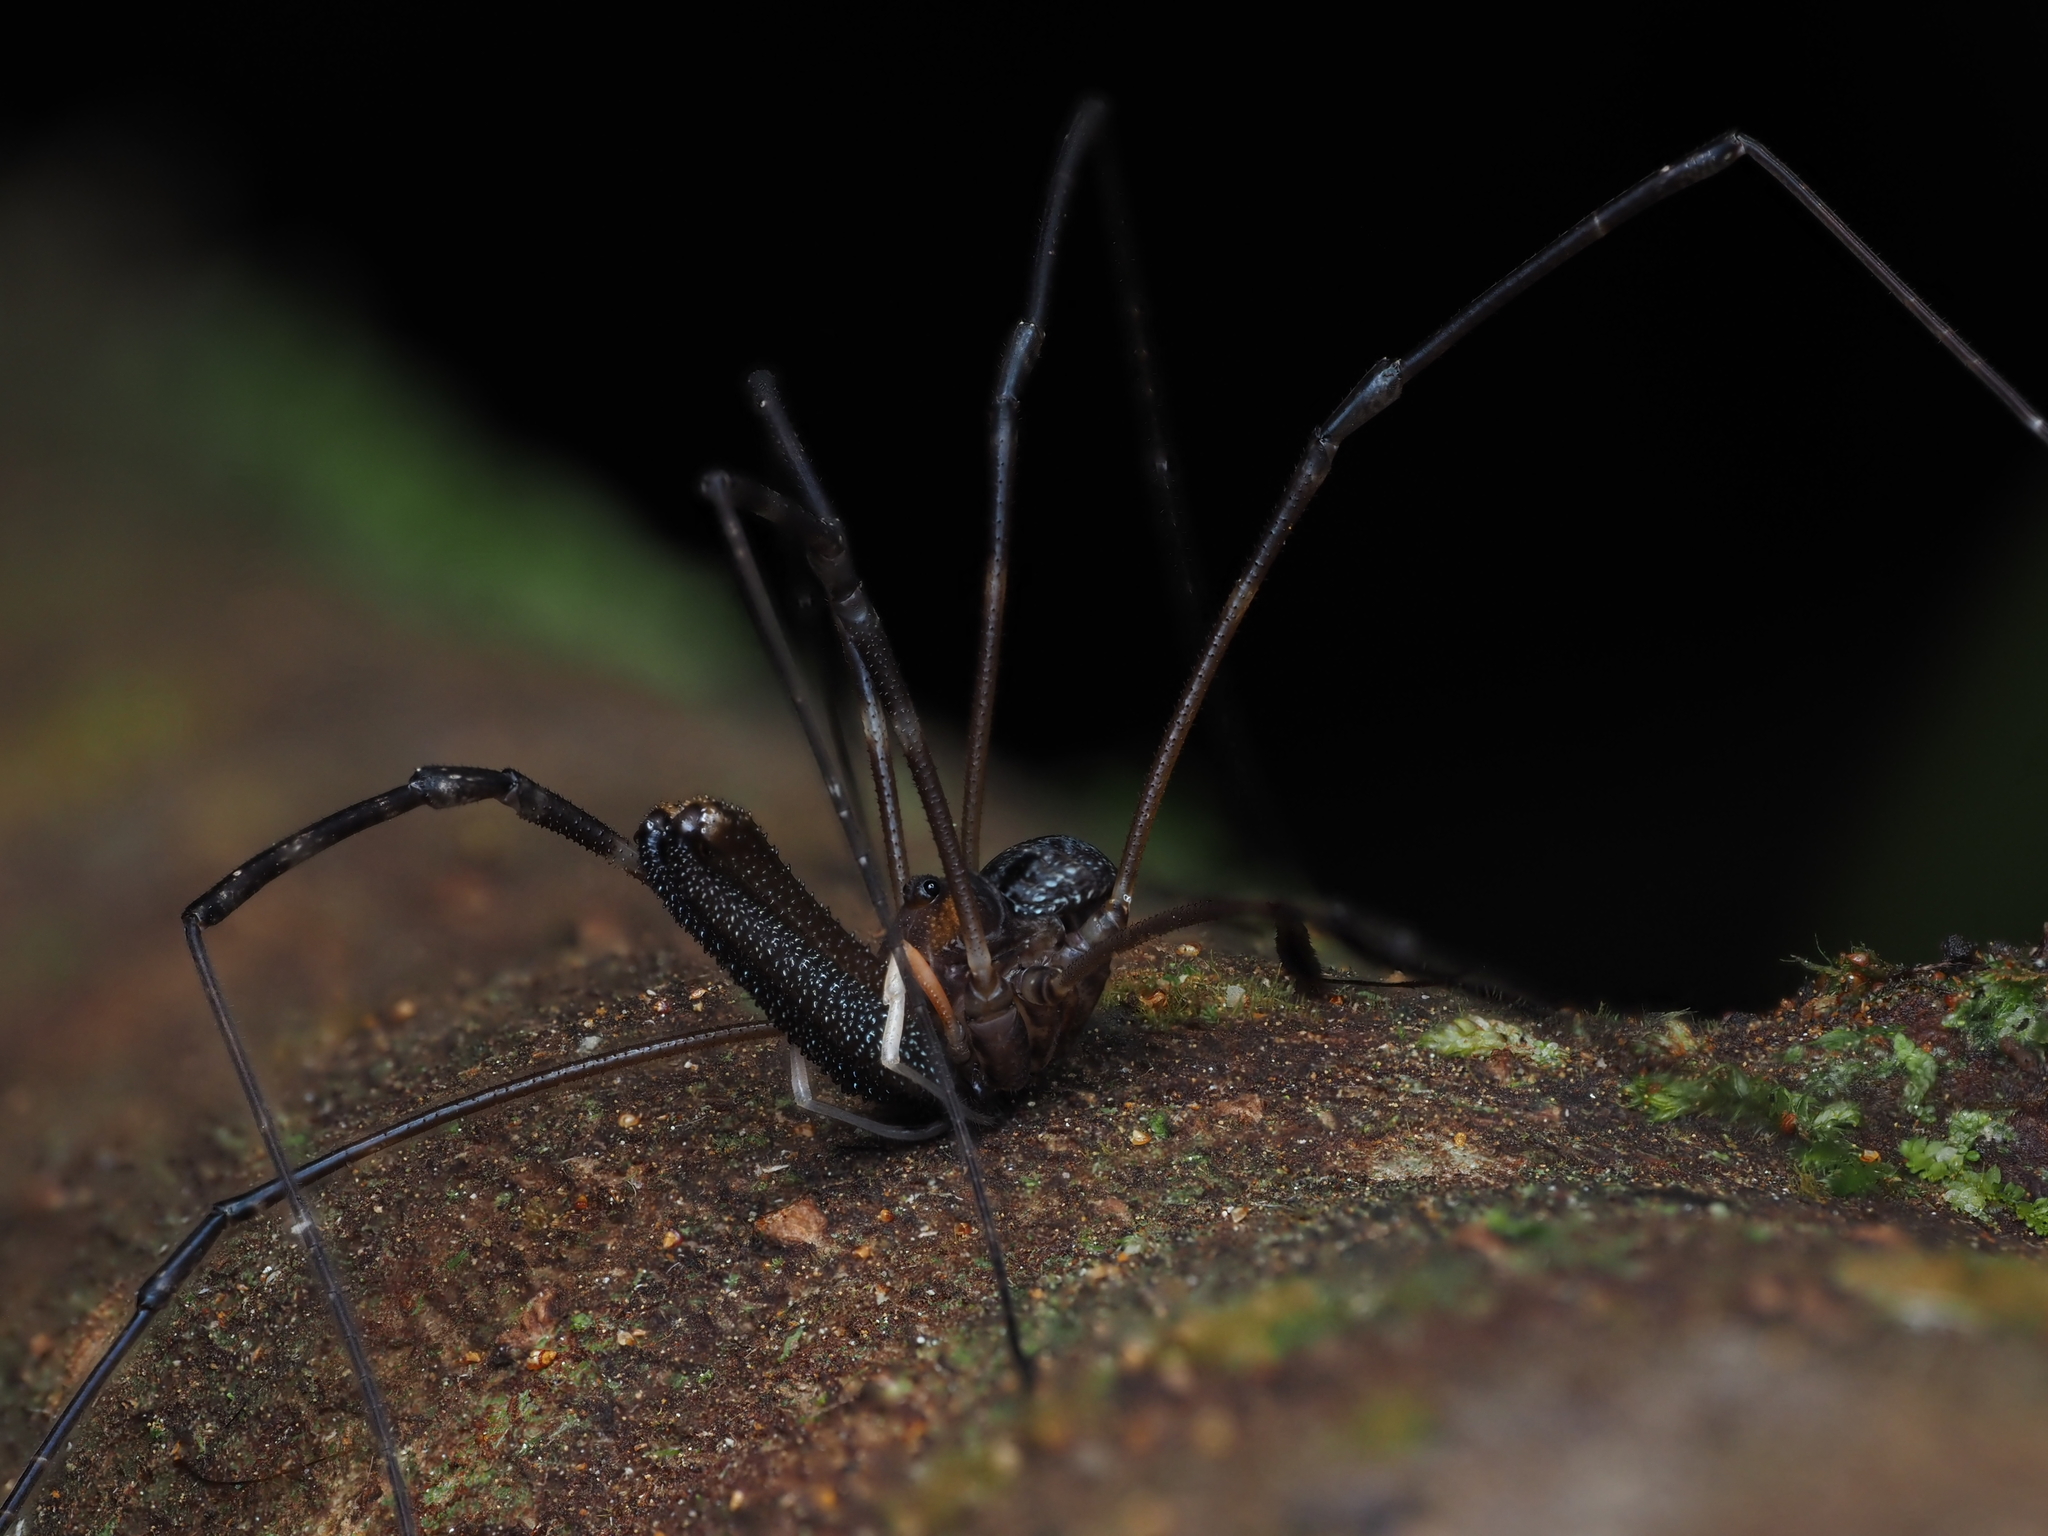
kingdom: Animalia
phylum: Arthropoda
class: Arachnida
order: Opiliones
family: Neopilionidae
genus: Forsteropsalis
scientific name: Forsteropsalis inconstans
